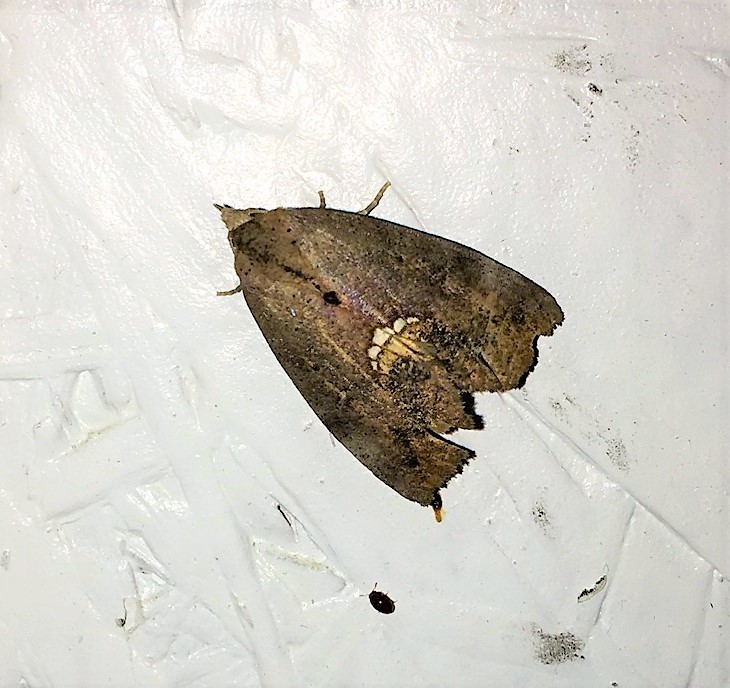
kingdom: Animalia
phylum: Arthropoda
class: Insecta
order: Lepidoptera
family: Erebidae
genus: Hypsoropha
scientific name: Hypsoropha hormos
